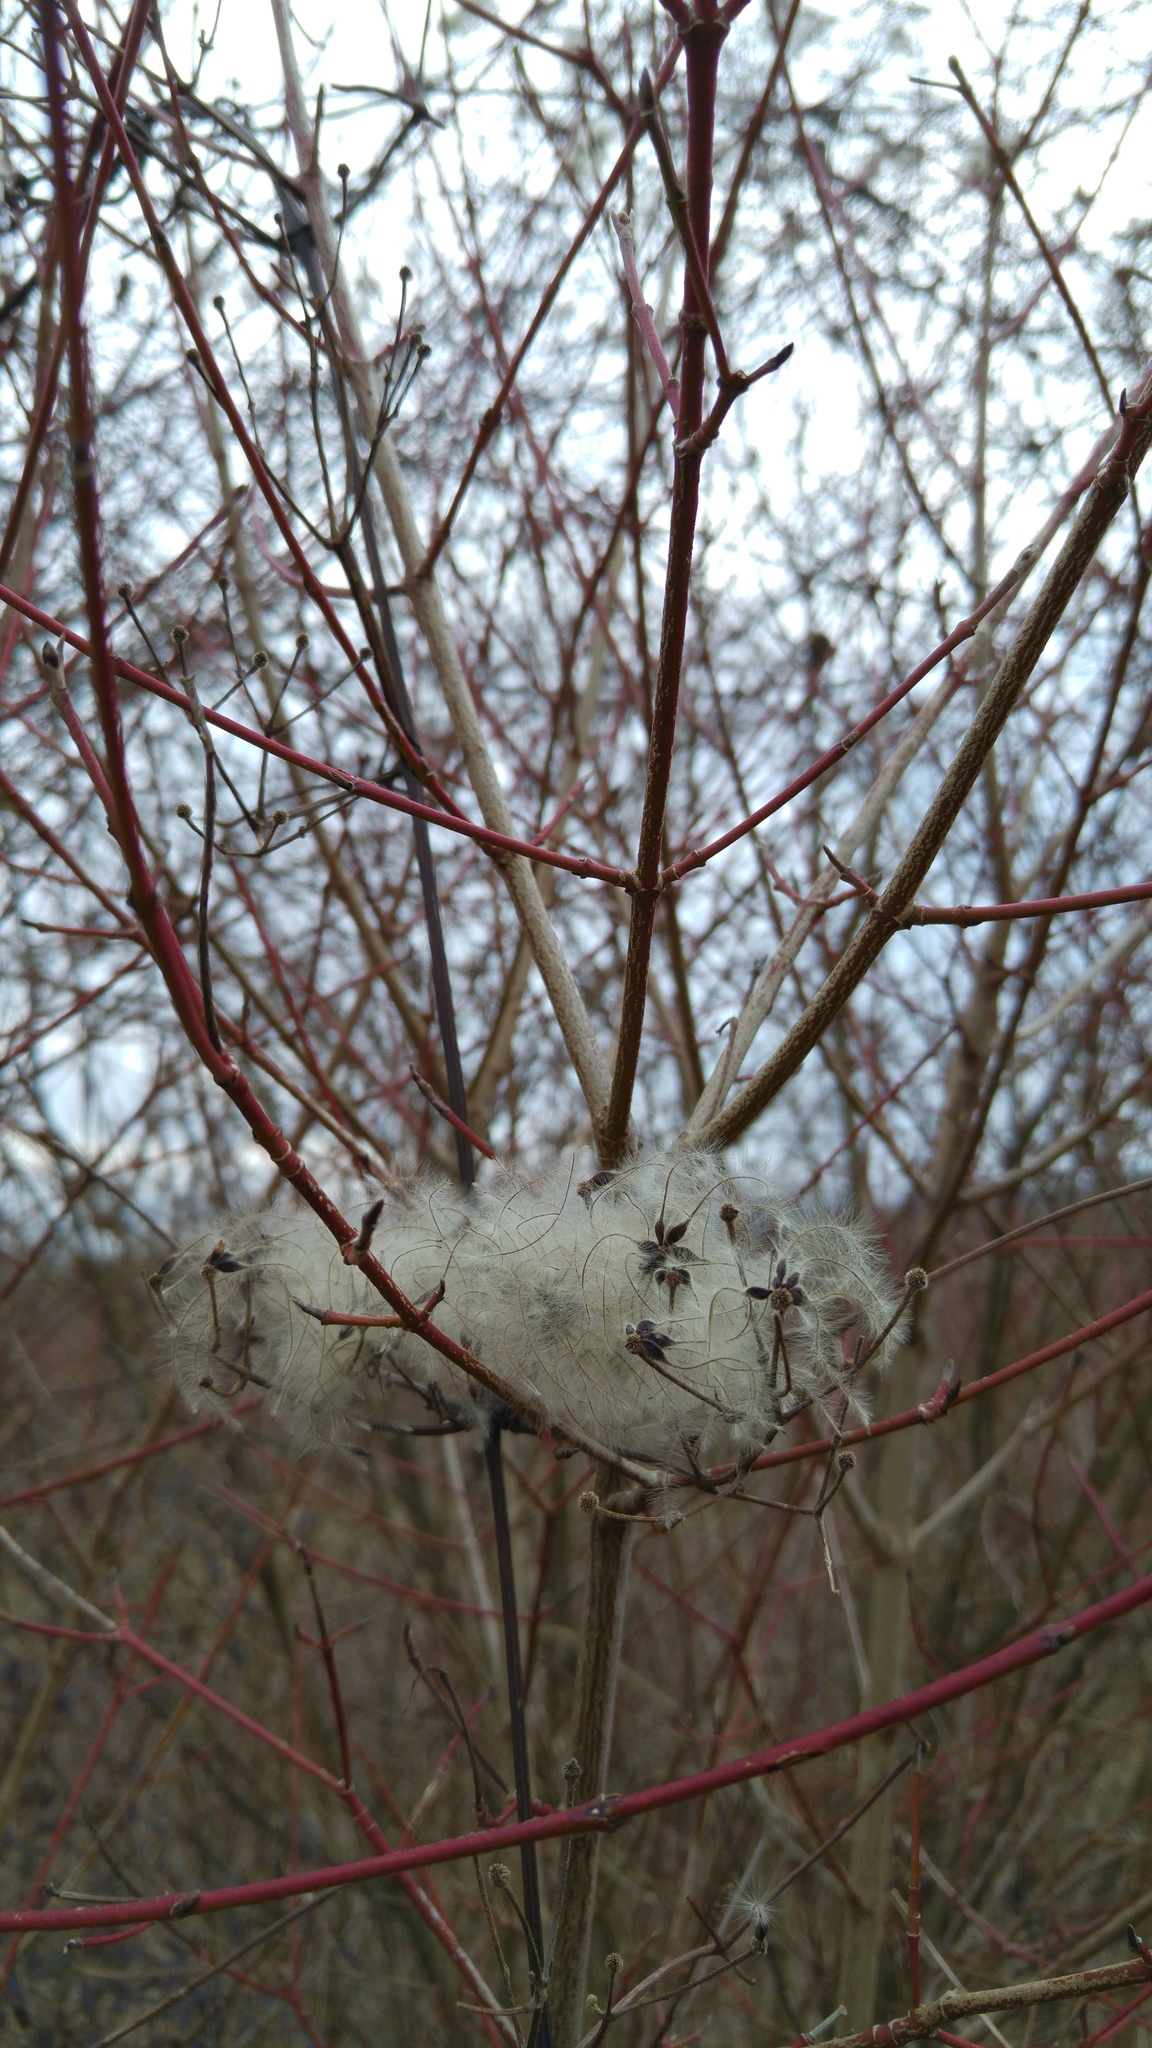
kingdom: Plantae
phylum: Tracheophyta
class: Magnoliopsida
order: Ranunculales
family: Ranunculaceae
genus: Clematis
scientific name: Clematis vitalba
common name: Evergreen clematis
